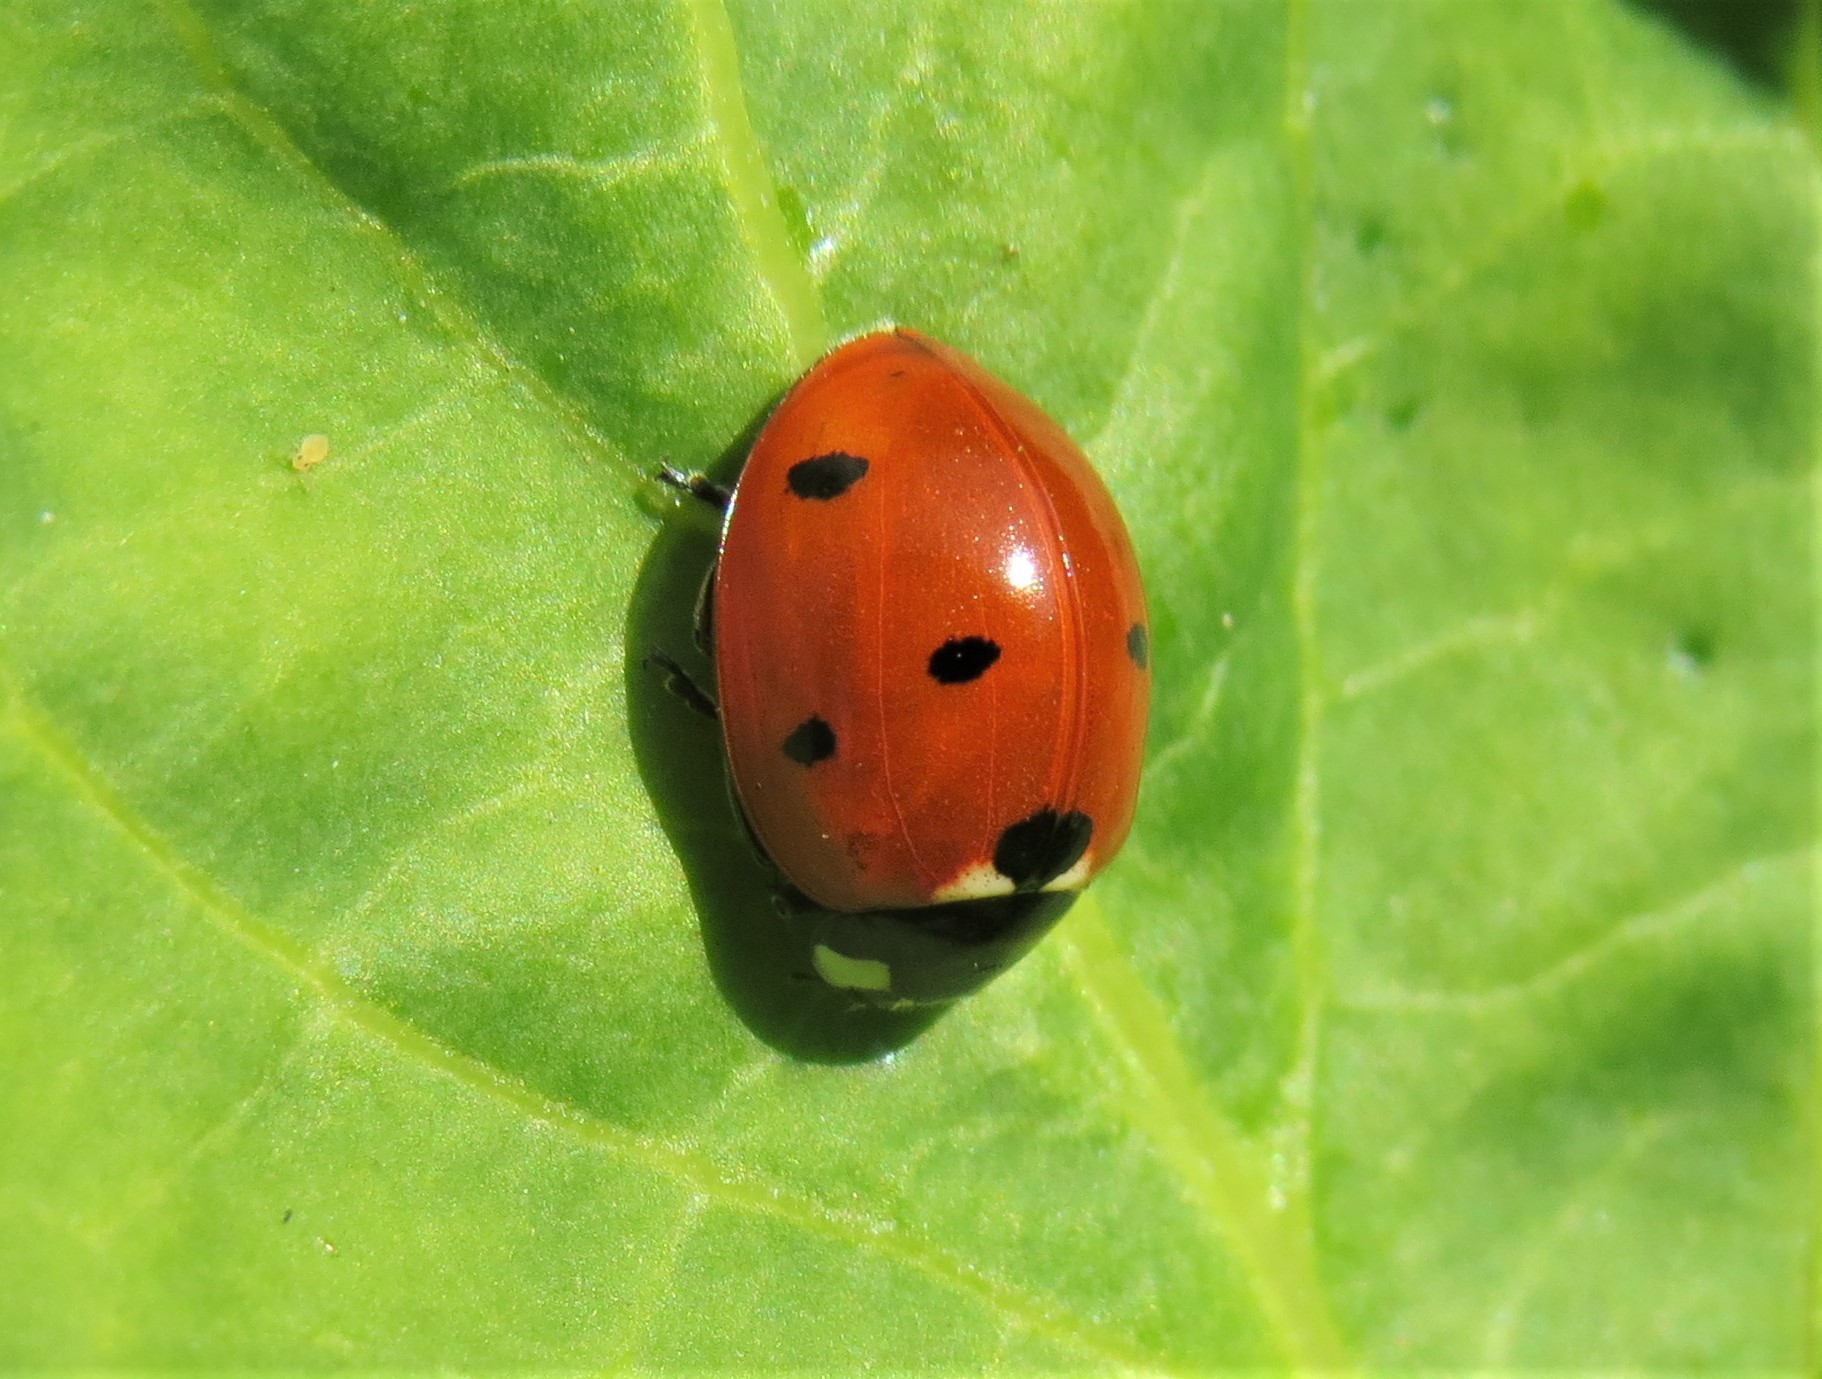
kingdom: Animalia
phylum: Arthropoda
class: Insecta
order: Coleoptera
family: Coccinellidae
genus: Coccinella
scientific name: Coccinella septempunctata
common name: Sevenspotted lady beetle
